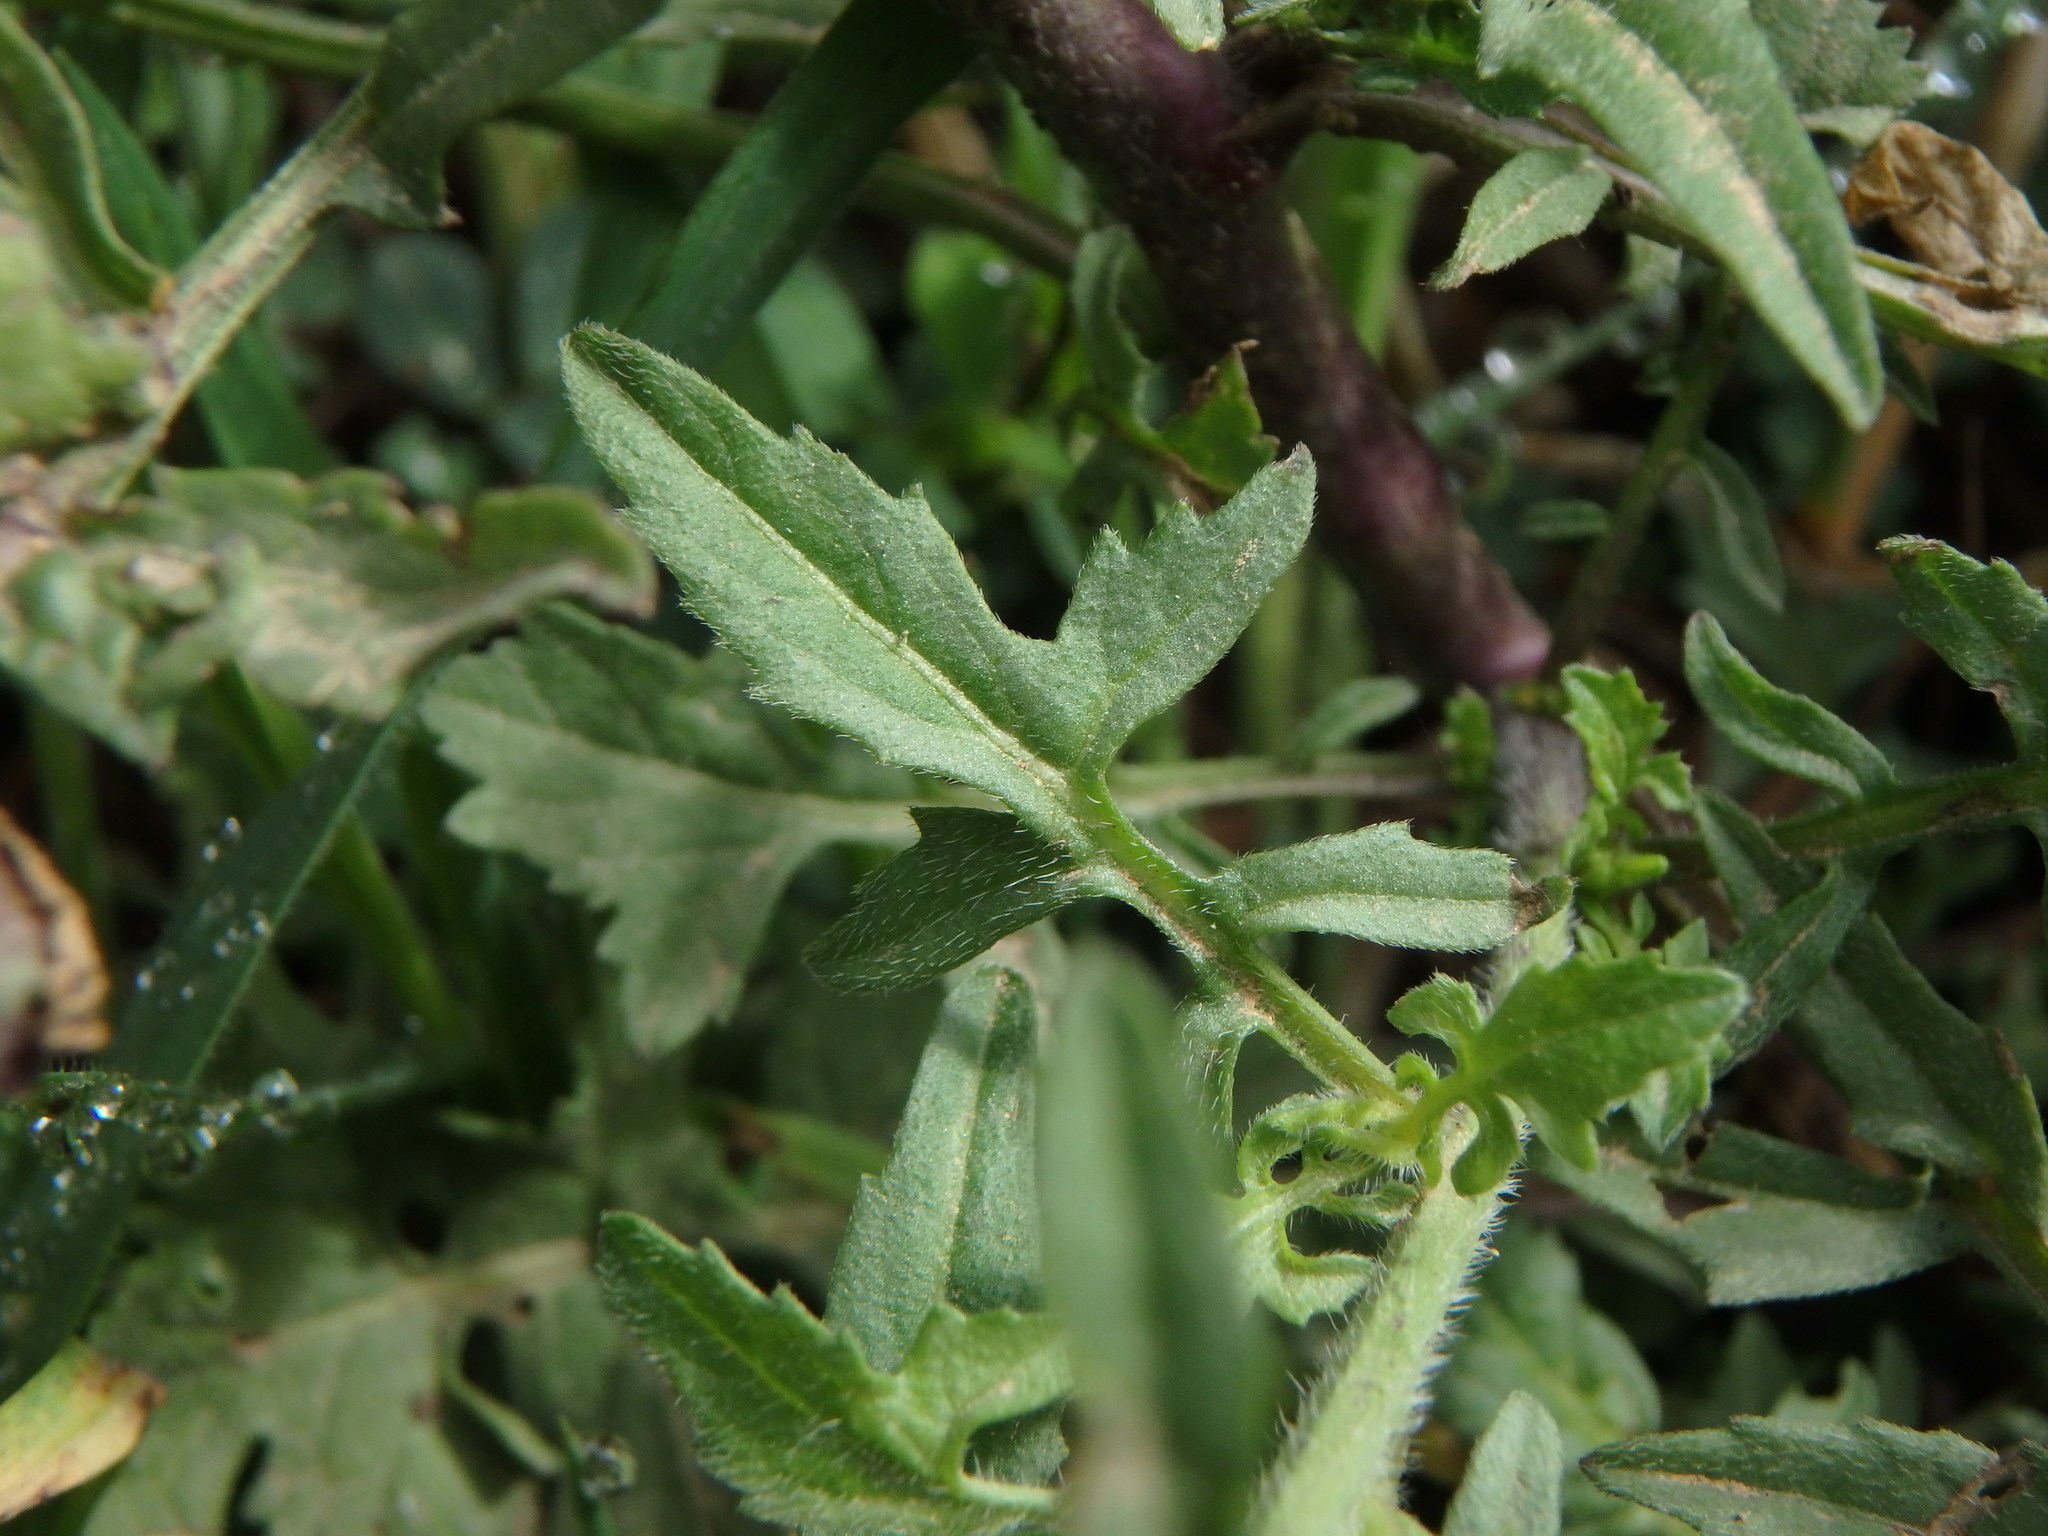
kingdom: Plantae
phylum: Tracheophyta
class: Magnoliopsida
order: Brassicales
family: Brassicaceae
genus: Sisymbrium
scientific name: Sisymbrium officinale
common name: Hedge mustard
